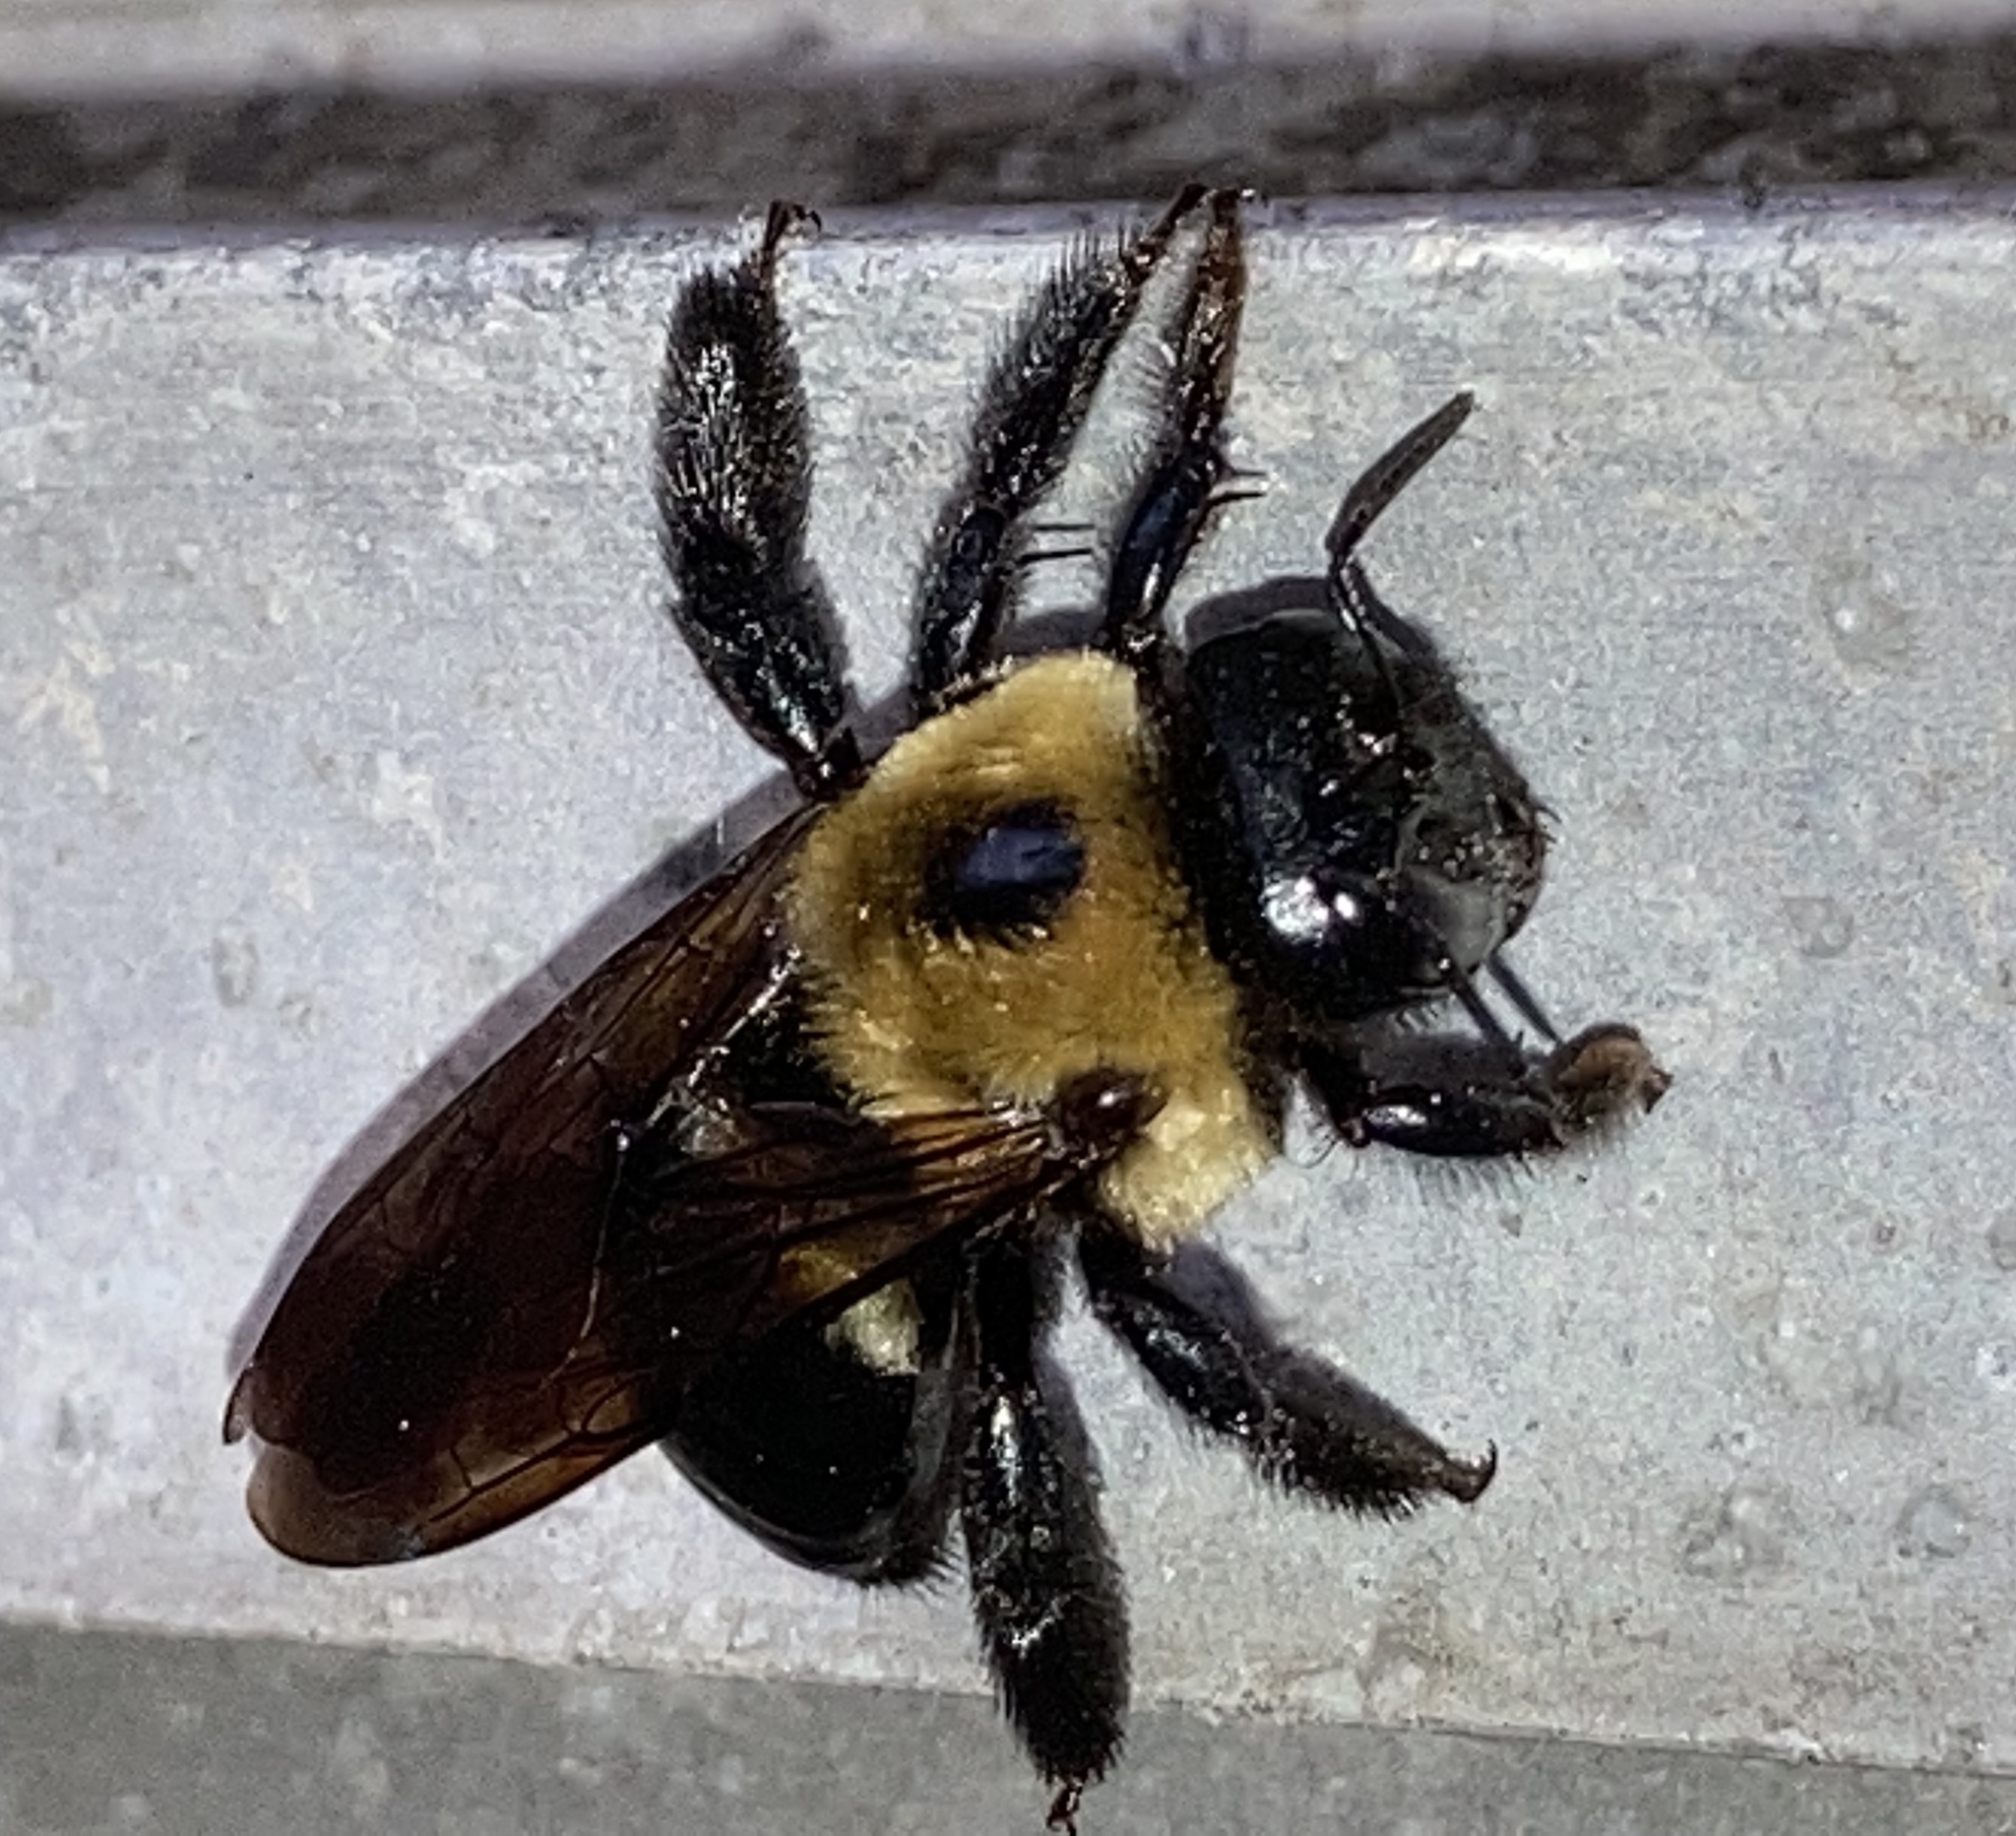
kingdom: Animalia
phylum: Arthropoda
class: Insecta
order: Hymenoptera
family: Apidae
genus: Xylocopa
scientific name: Xylocopa virginica
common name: Carpenter bee
